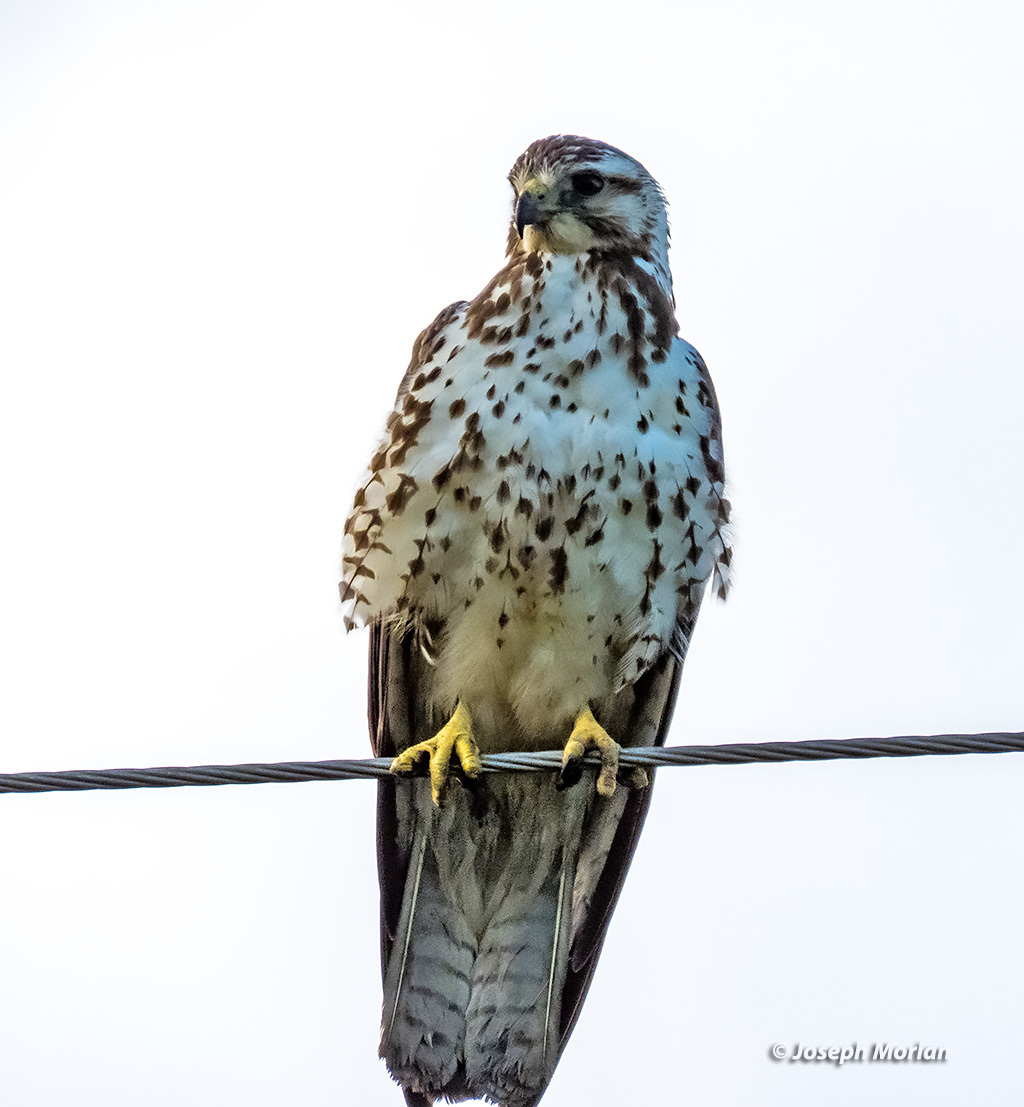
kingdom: Animalia
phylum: Chordata
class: Aves
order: Accipitriformes
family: Accipitridae
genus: Buteo
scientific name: Buteo swainsoni
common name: Swainson's hawk
